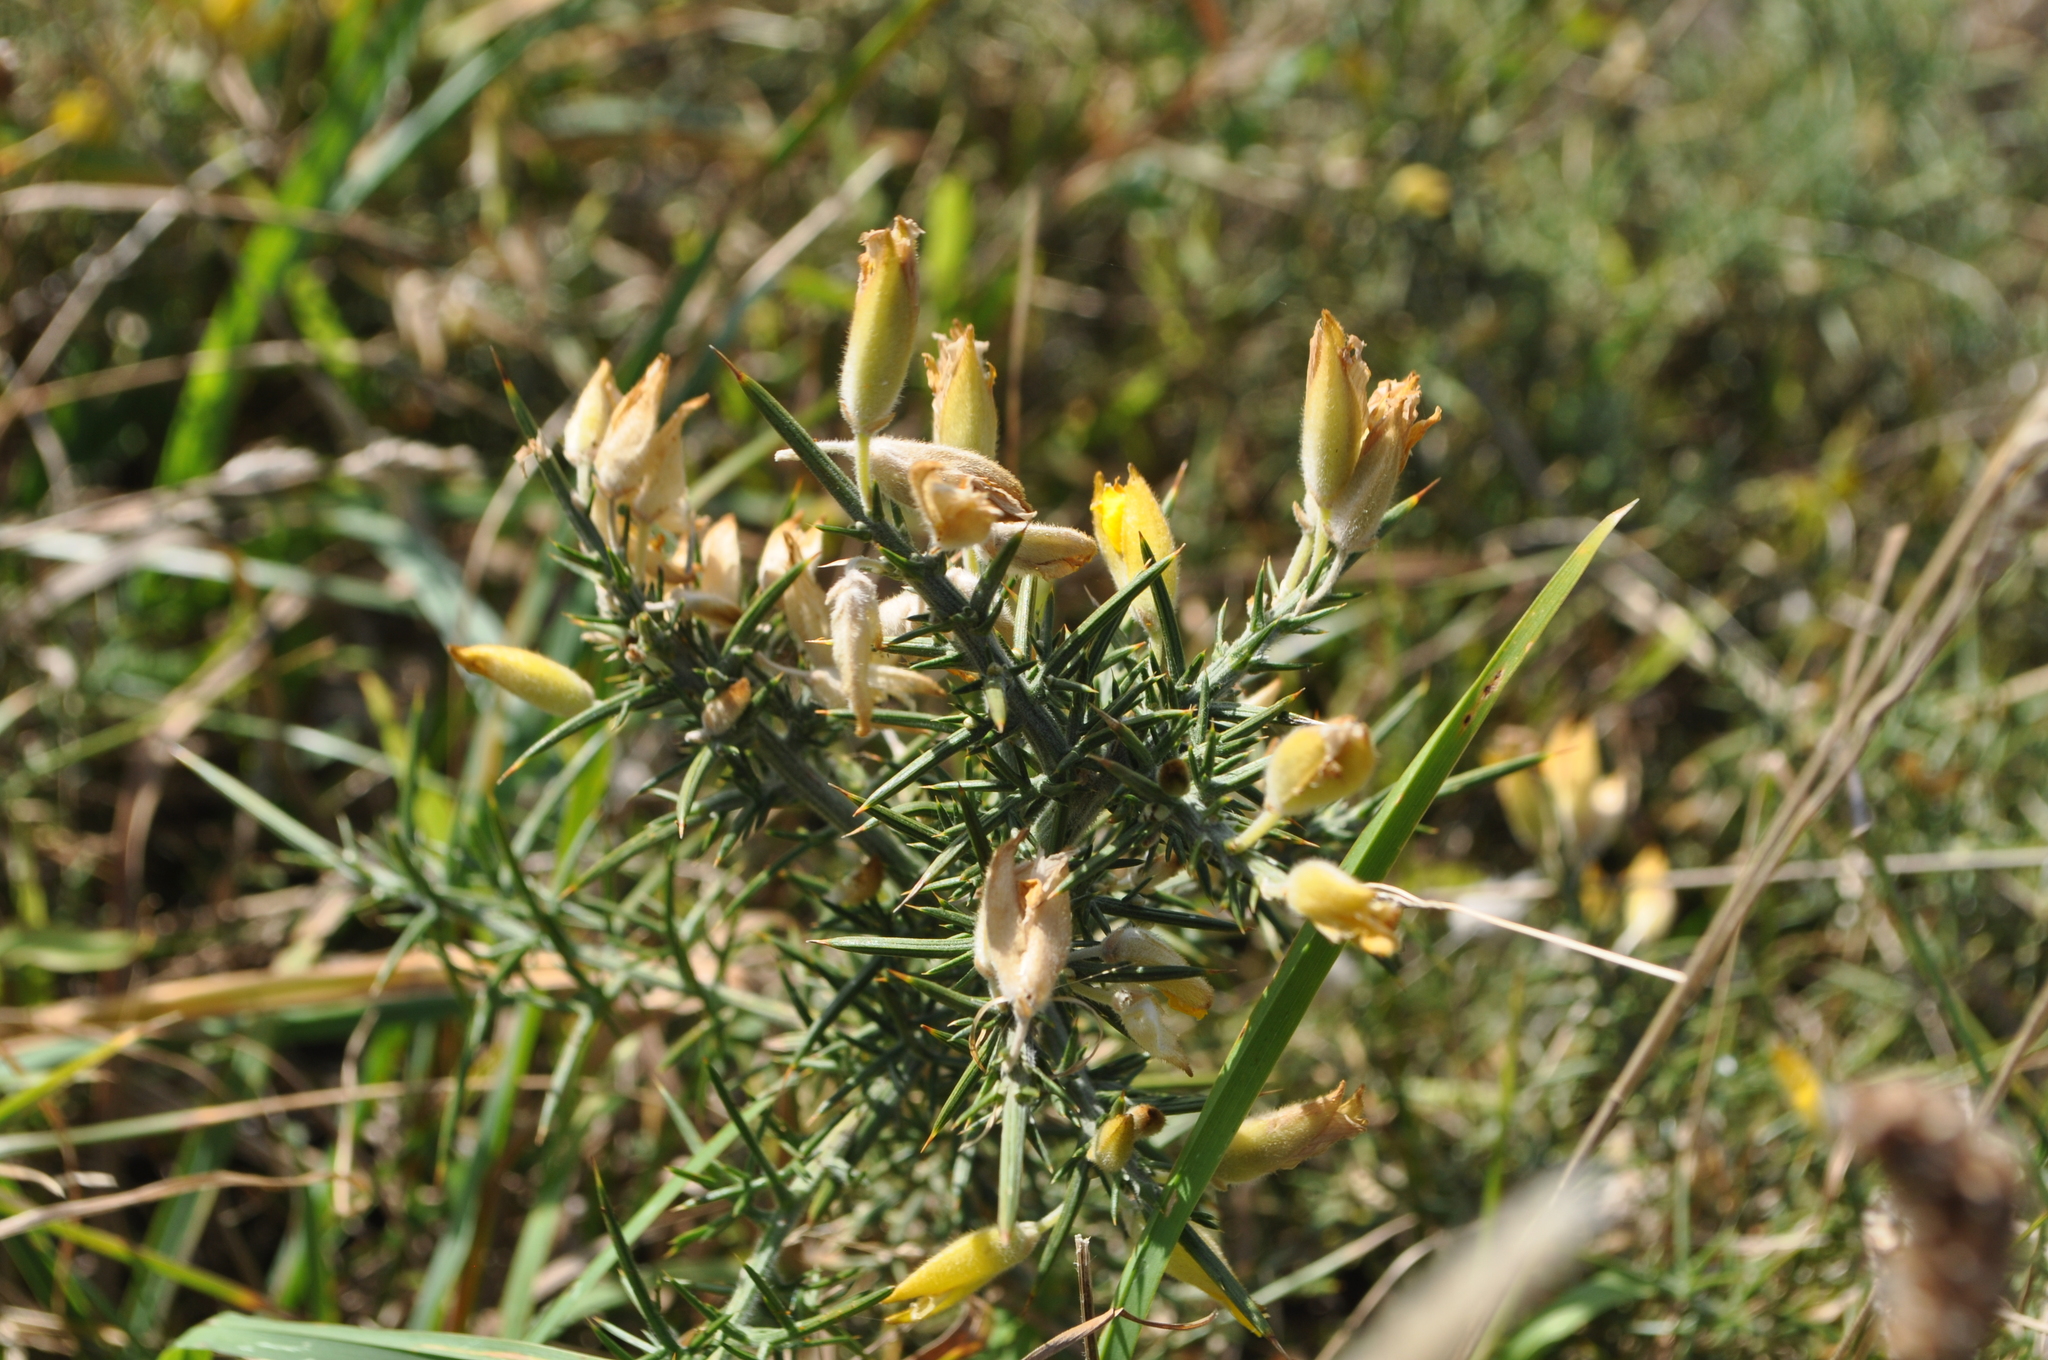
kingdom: Plantae
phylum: Tracheophyta
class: Magnoliopsida
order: Fabales
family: Fabaceae
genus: Ulex
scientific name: Ulex europaeus
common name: Common gorse
